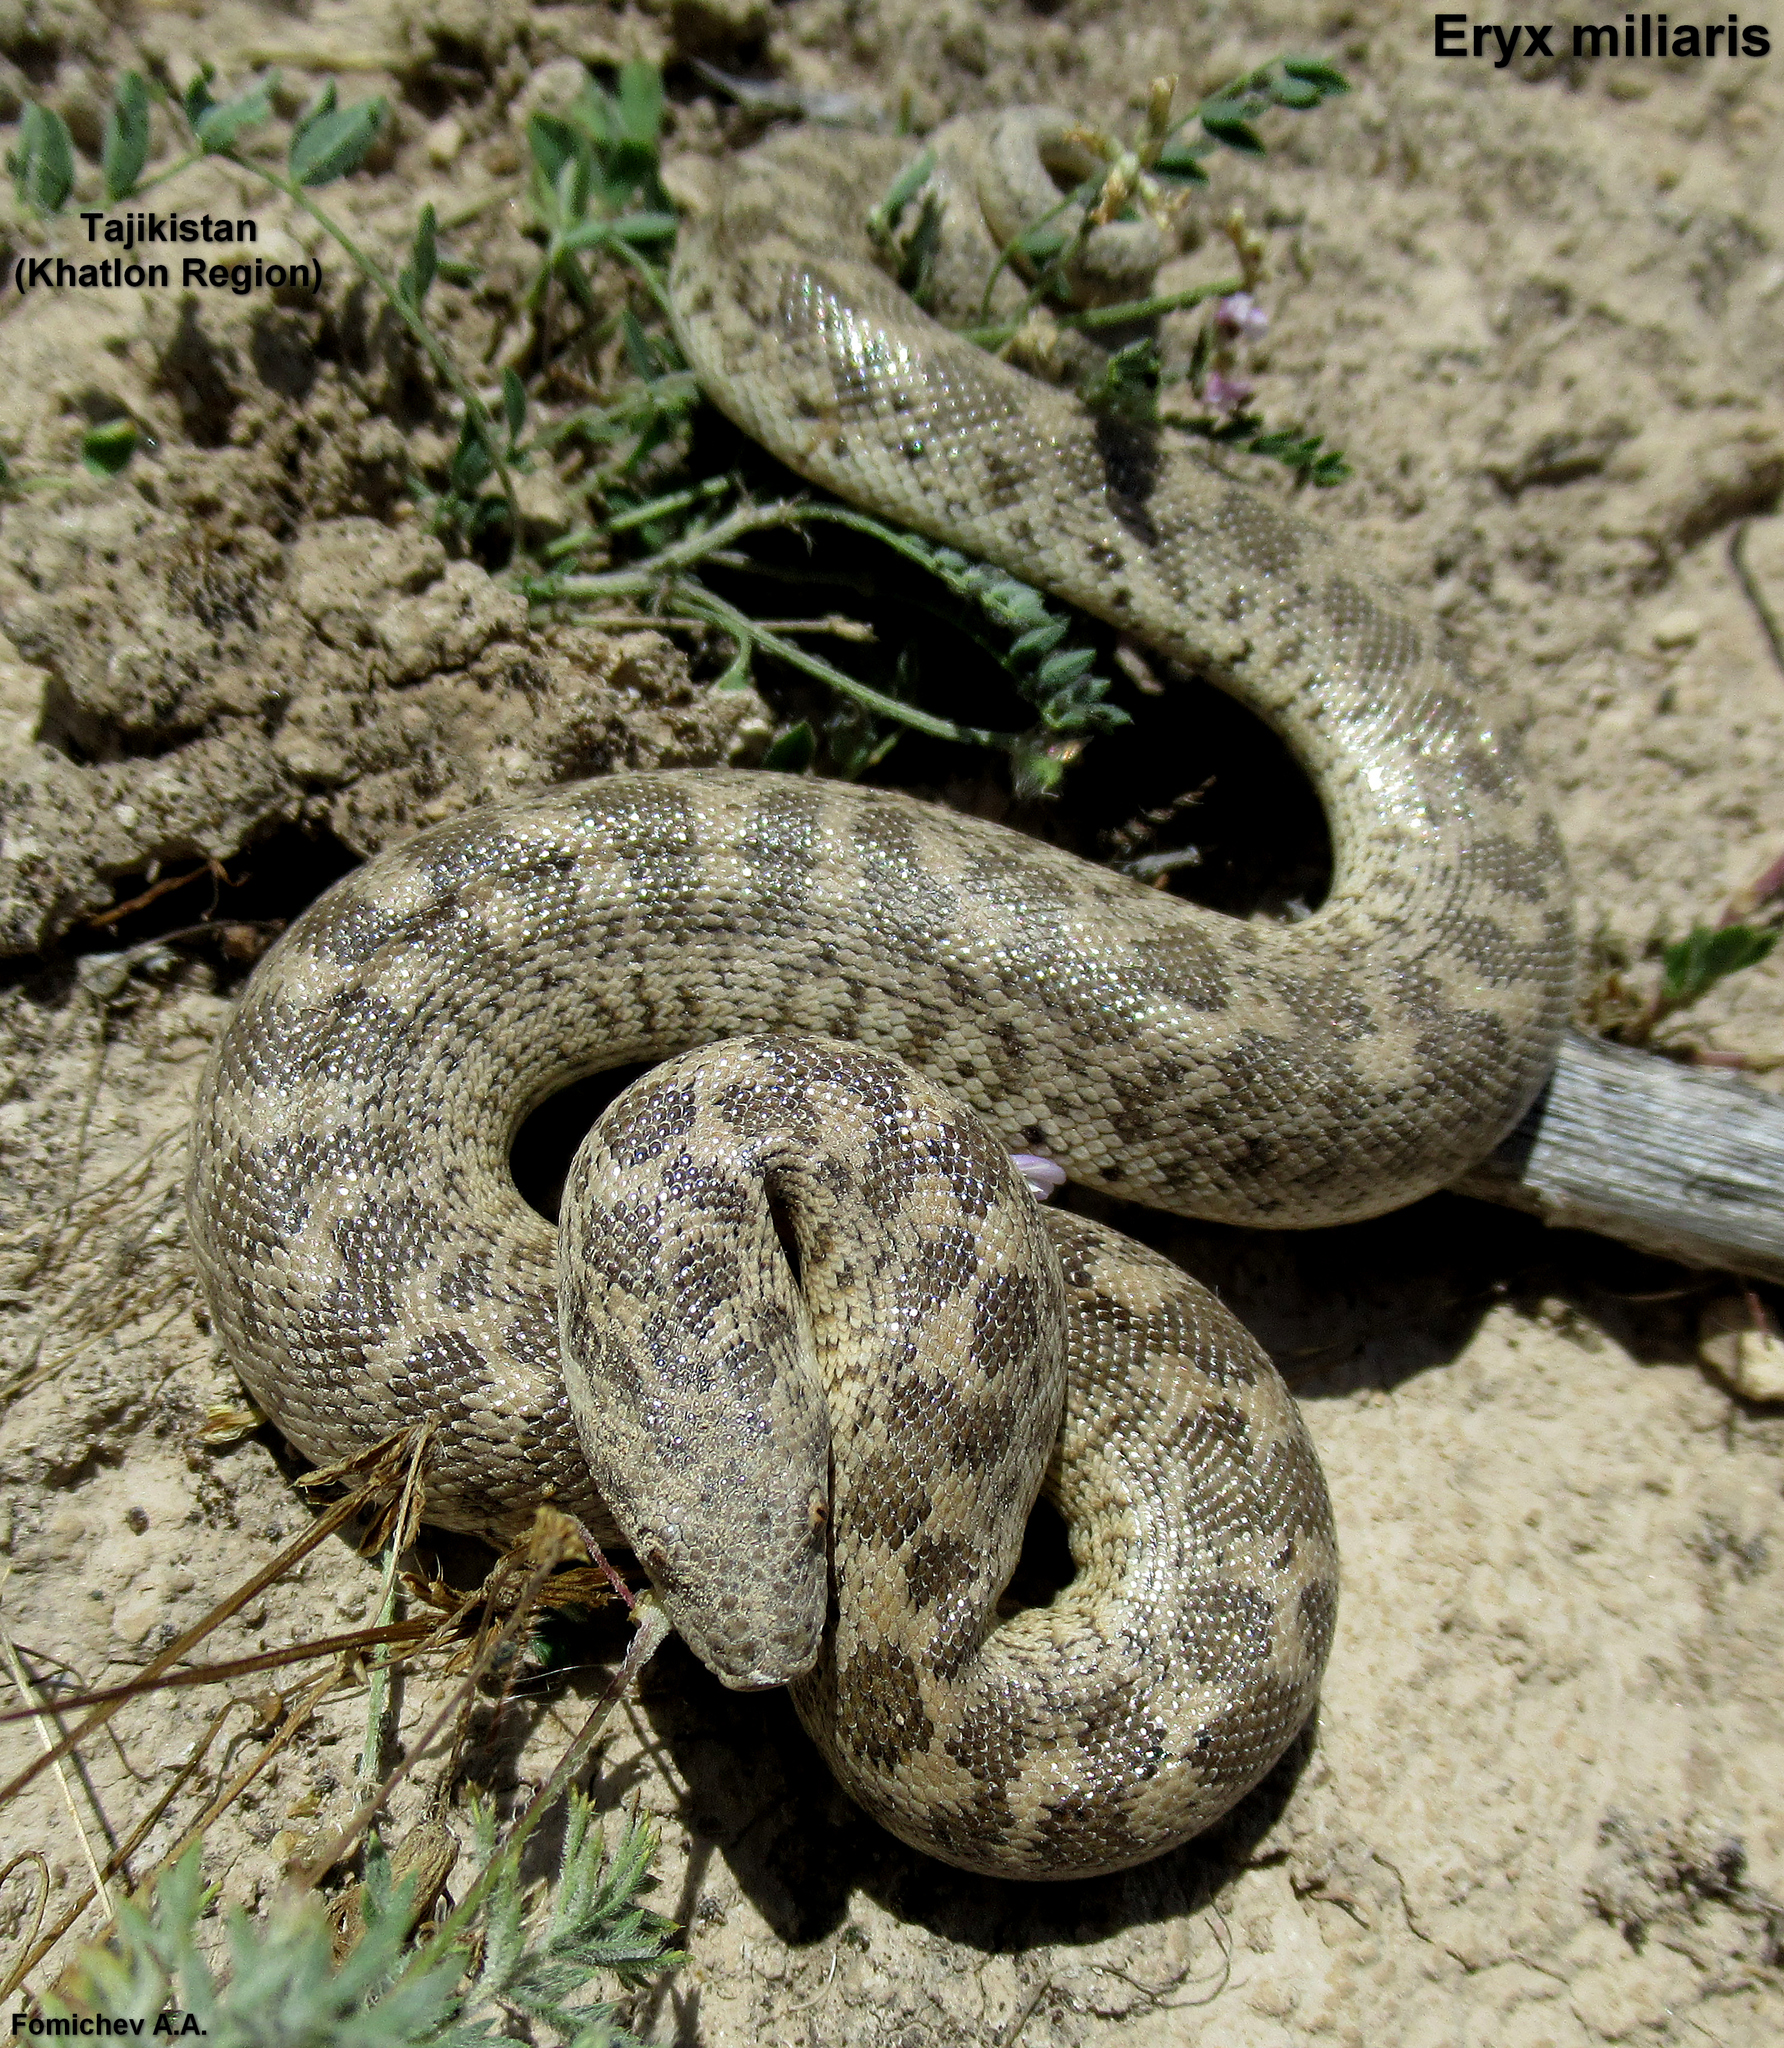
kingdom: Animalia
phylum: Chordata
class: Squamata
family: Boidae
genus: Eryx
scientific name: Eryx miliaris
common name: Desert sand boa
